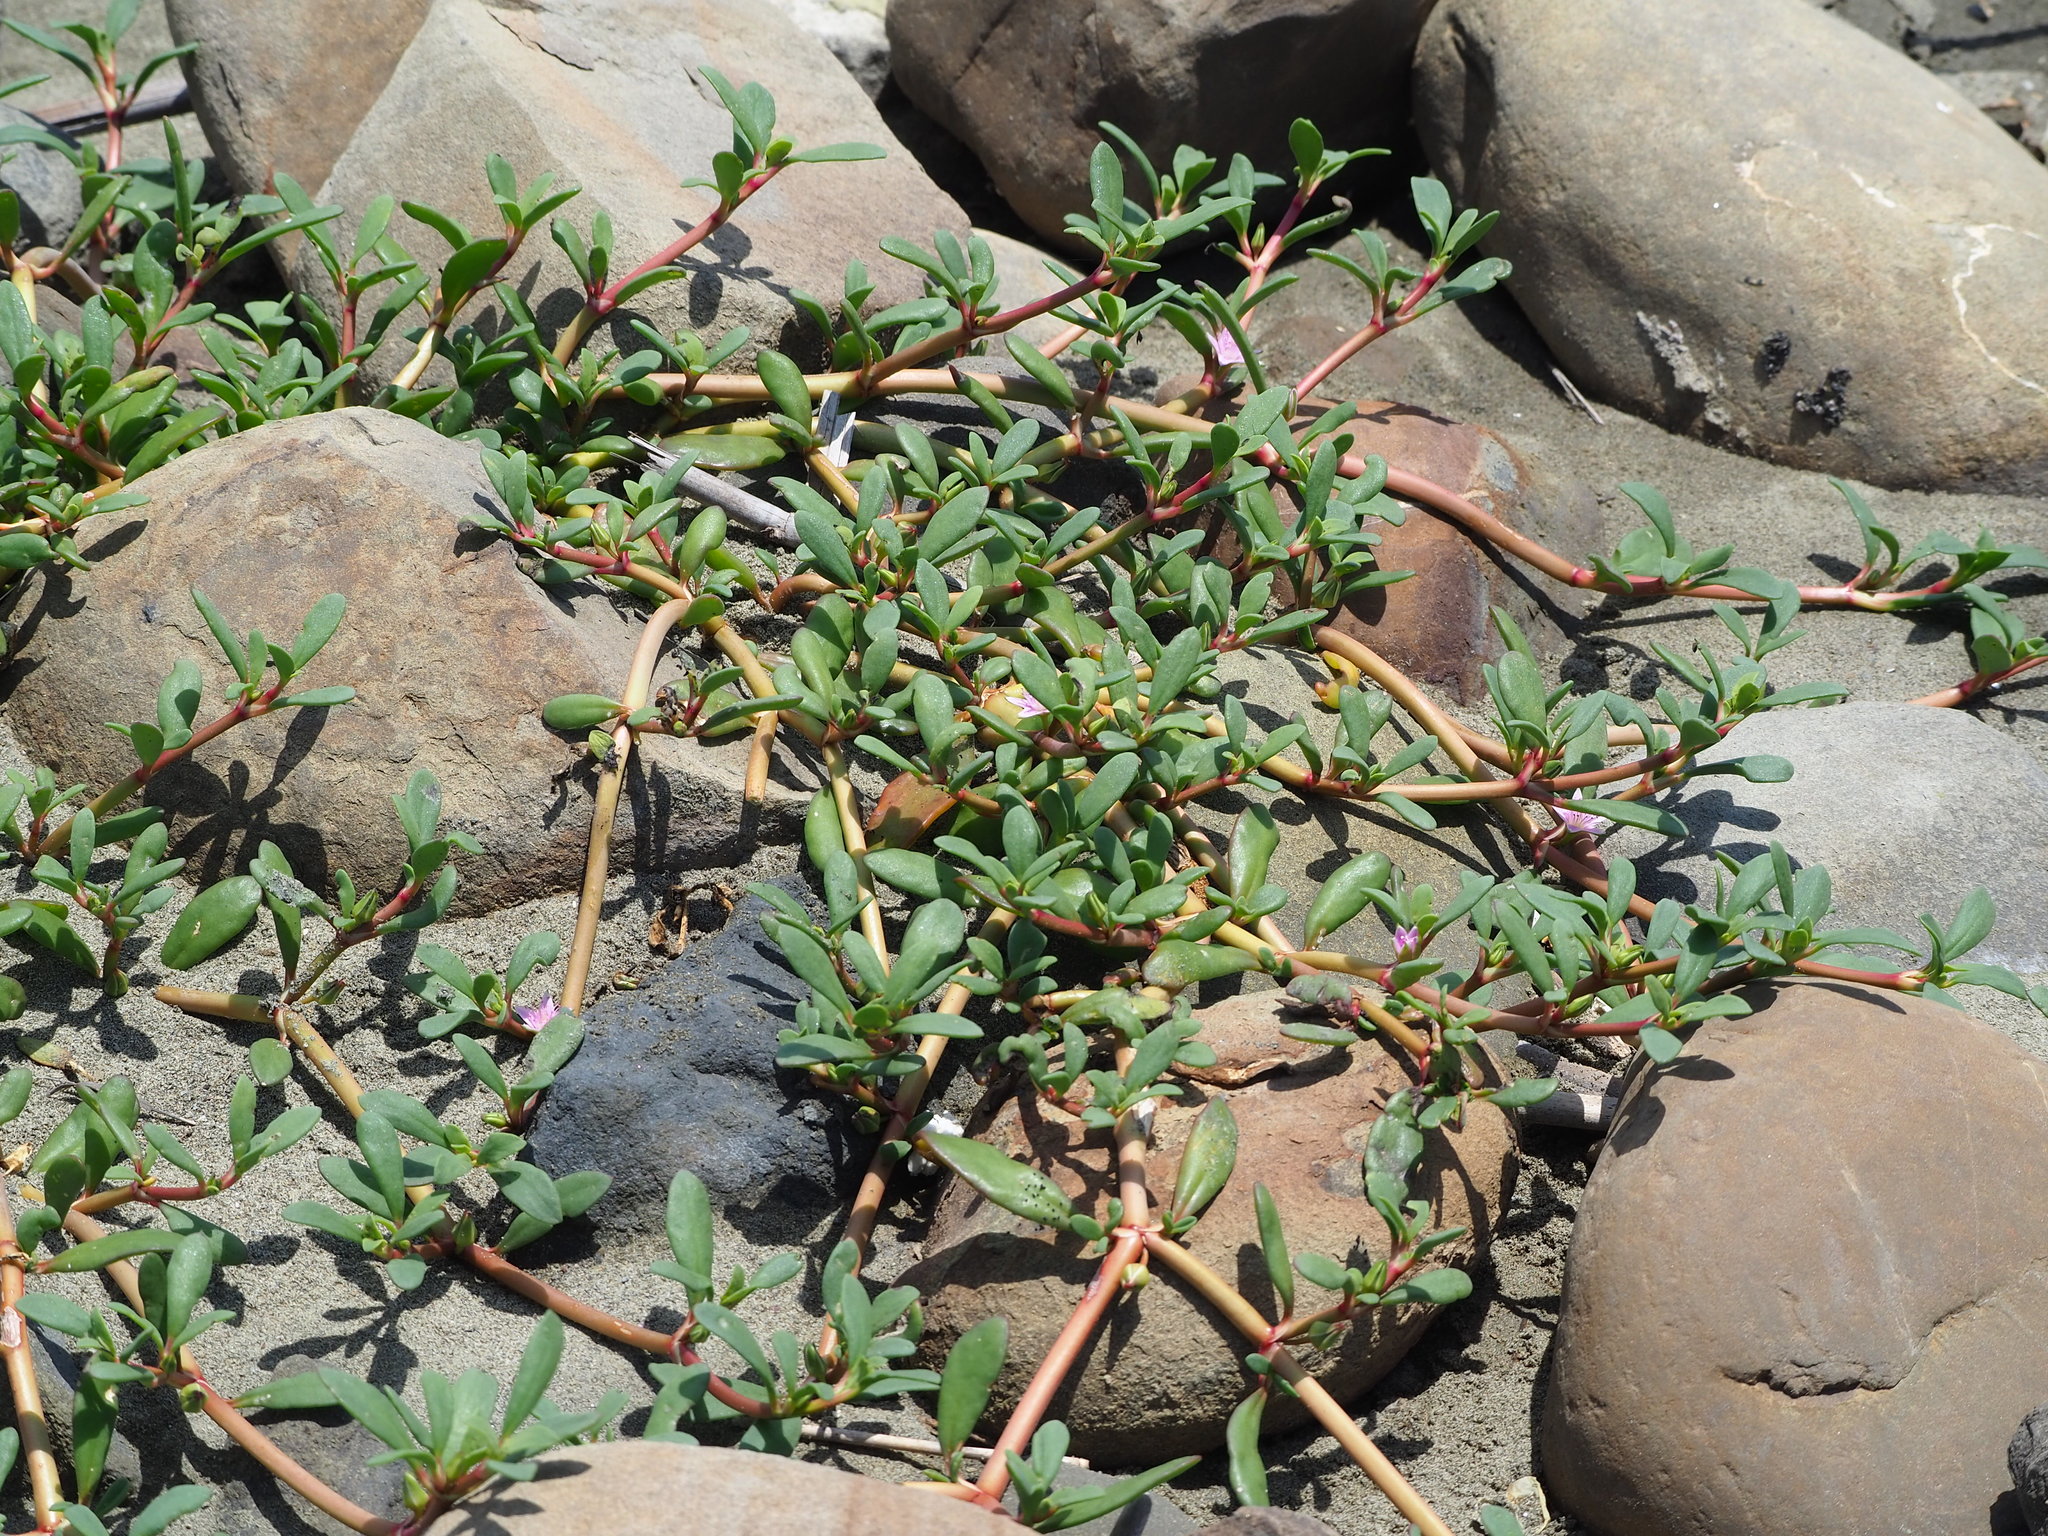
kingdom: Plantae
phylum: Tracheophyta
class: Magnoliopsida
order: Caryophyllales
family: Aizoaceae
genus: Sesuvium
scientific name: Sesuvium portulacastrum
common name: Sea-purslane
